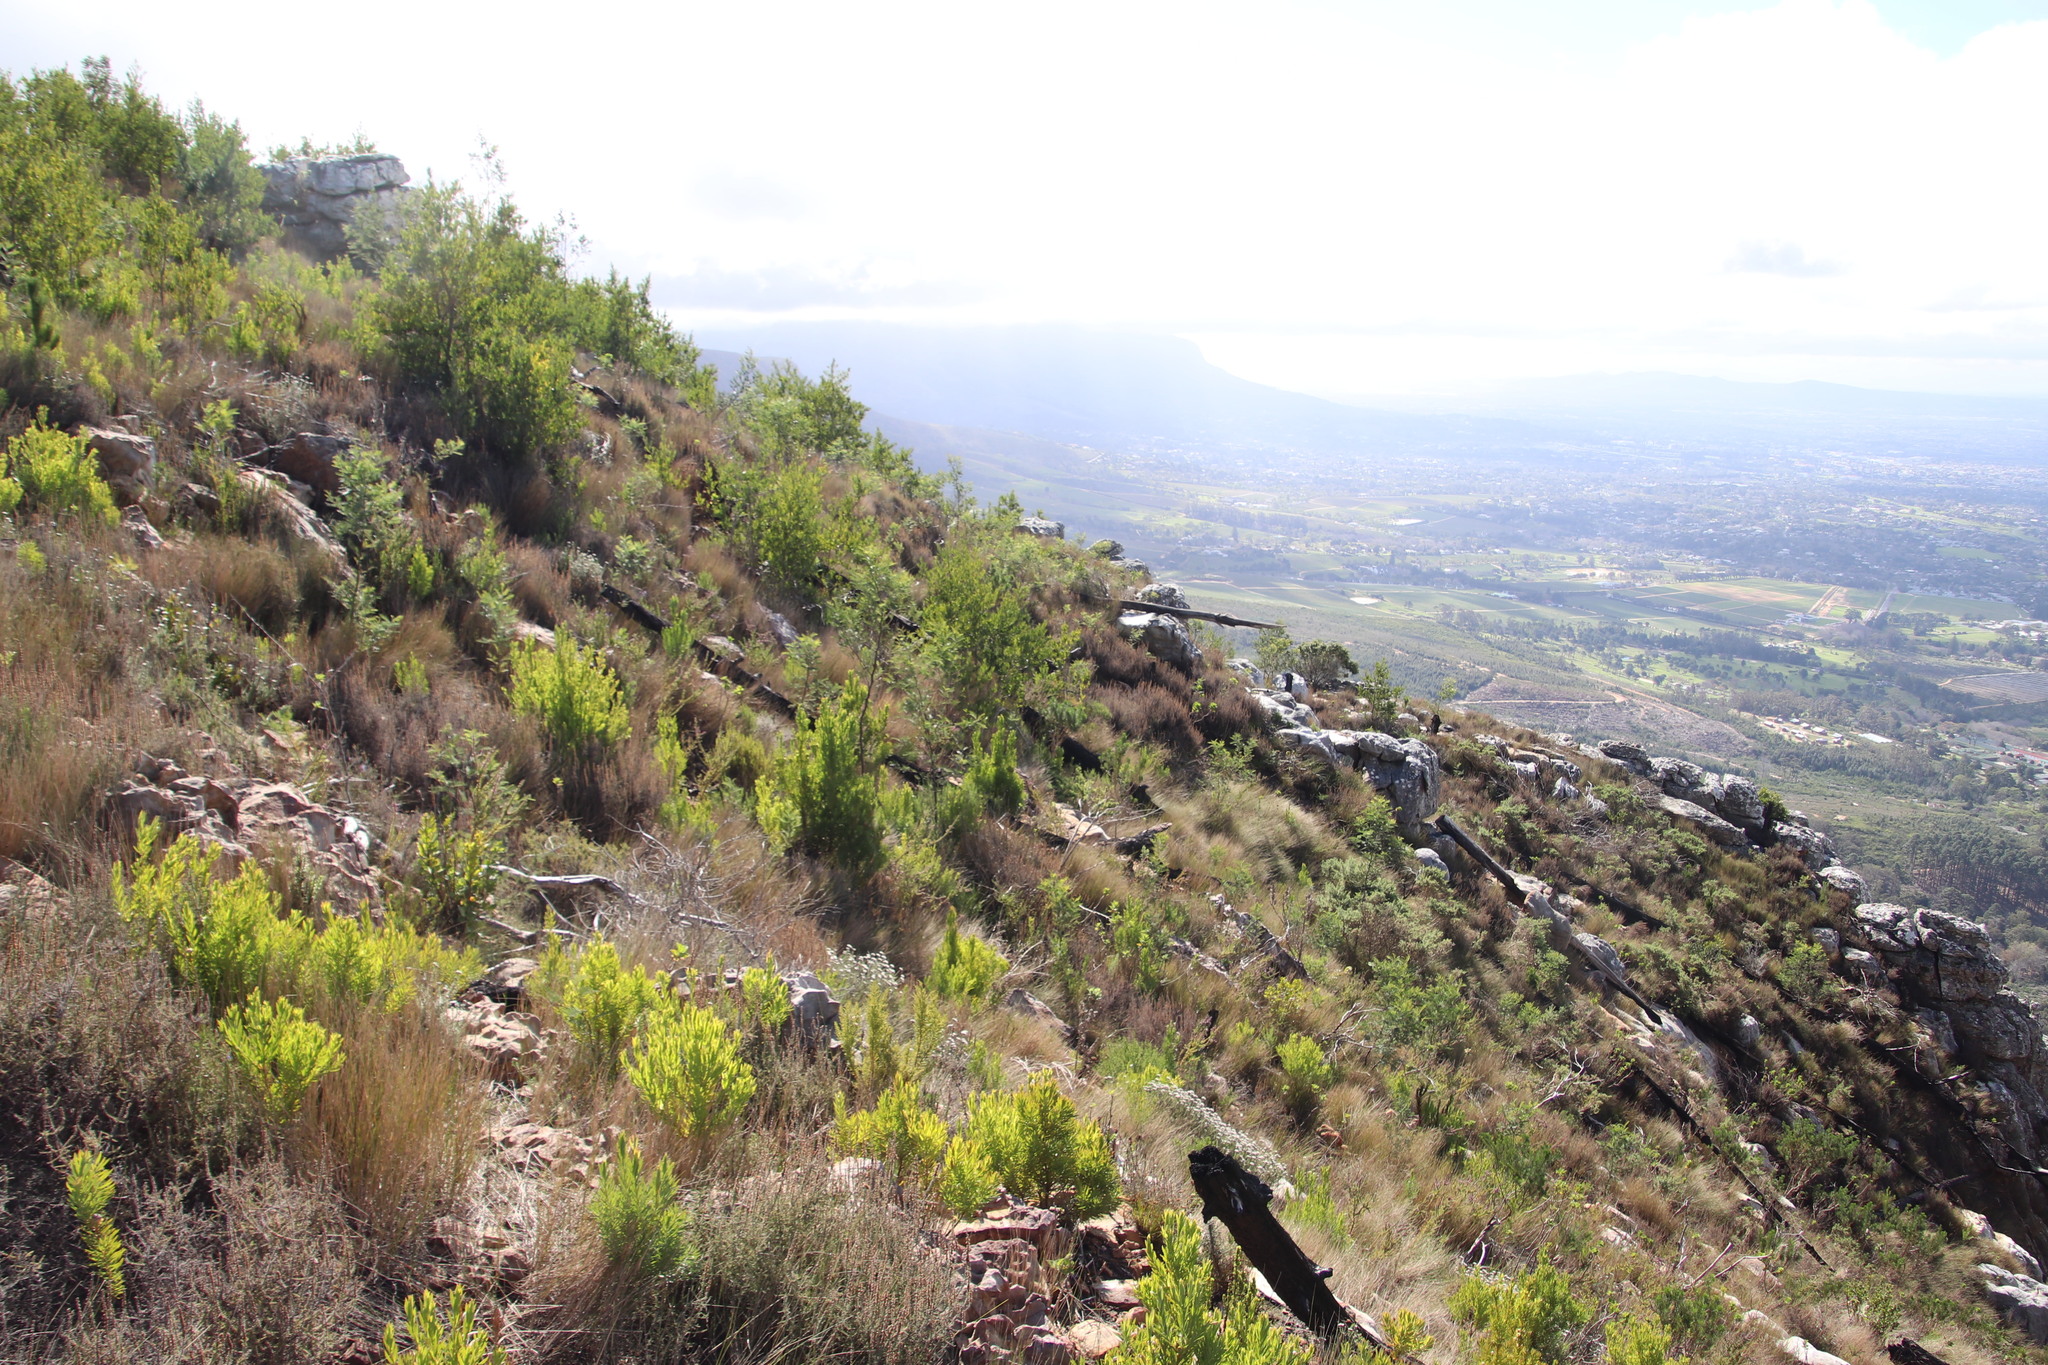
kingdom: Plantae
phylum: Tracheophyta
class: Magnoliopsida
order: Proteales
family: Proteaceae
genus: Leucadendron
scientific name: Leucadendron xanthoconus
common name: Sickle-leaf conebush
